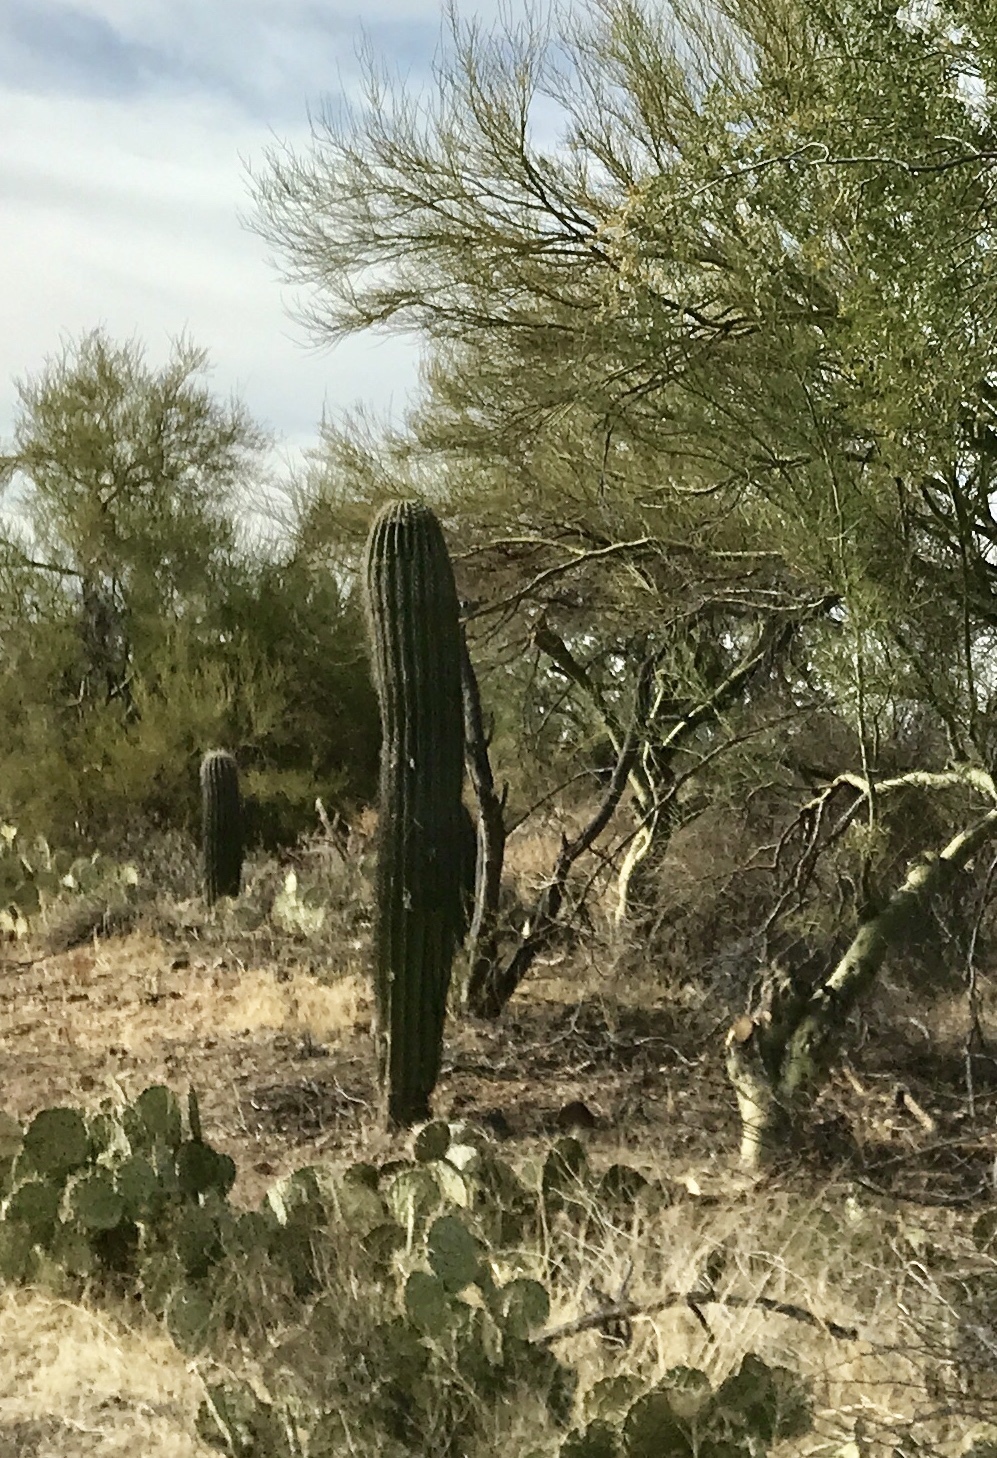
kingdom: Plantae
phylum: Tracheophyta
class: Magnoliopsida
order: Caryophyllales
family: Cactaceae
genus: Carnegiea
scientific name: Carnegiea gigantea
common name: Saguaro
